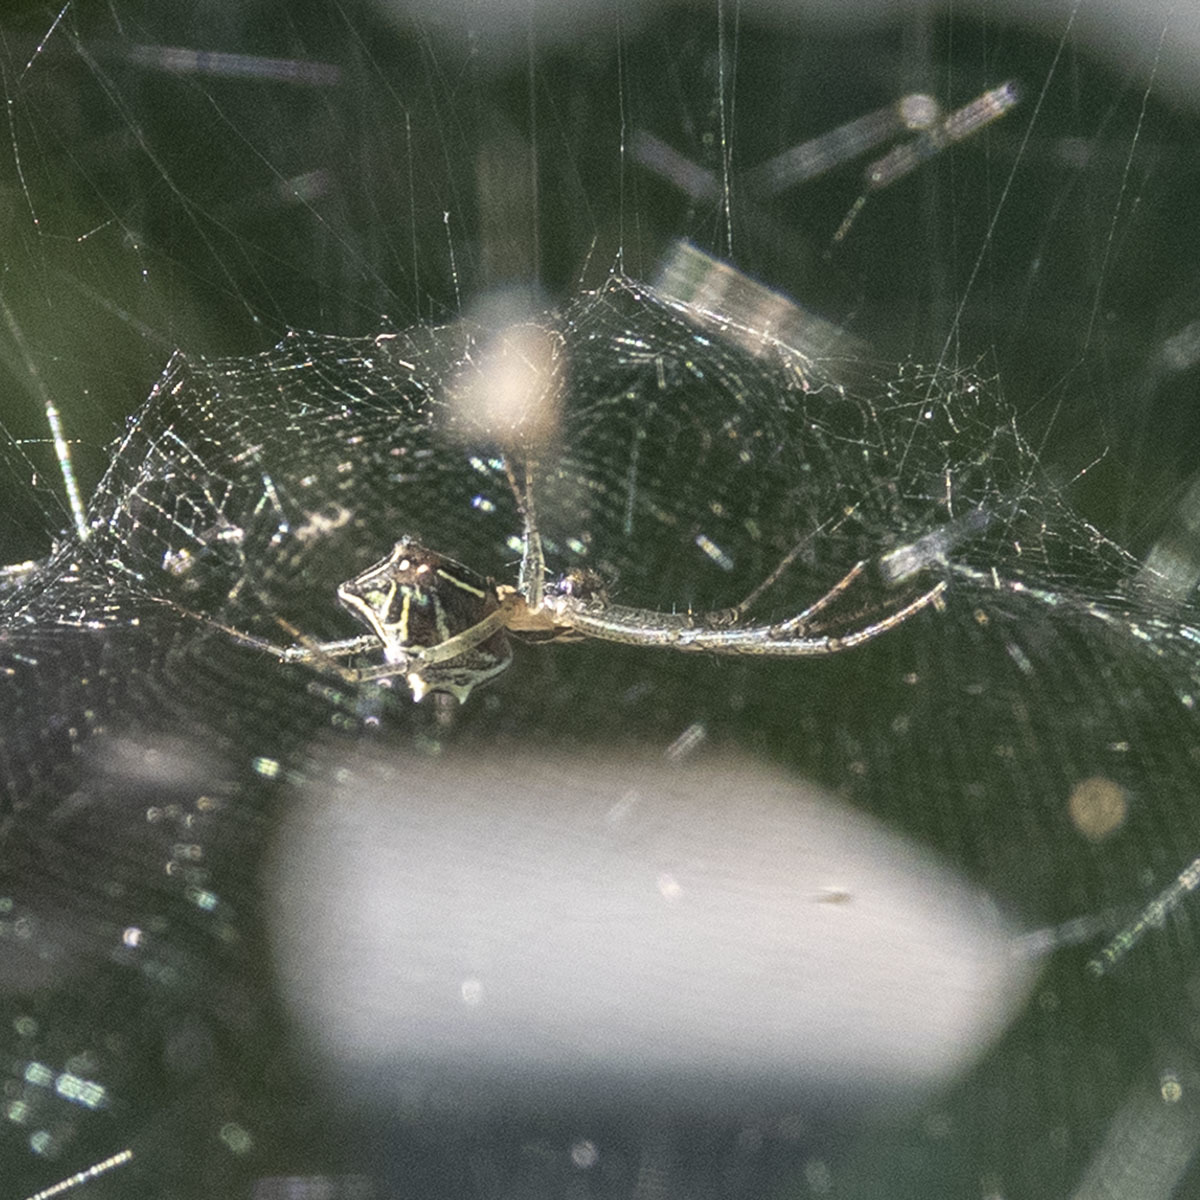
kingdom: Animalia
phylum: Arthropoda
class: Arachnida
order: Araneae
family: Araneidae
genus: Cyrtophora
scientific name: Cyrtophora cicatrosa
